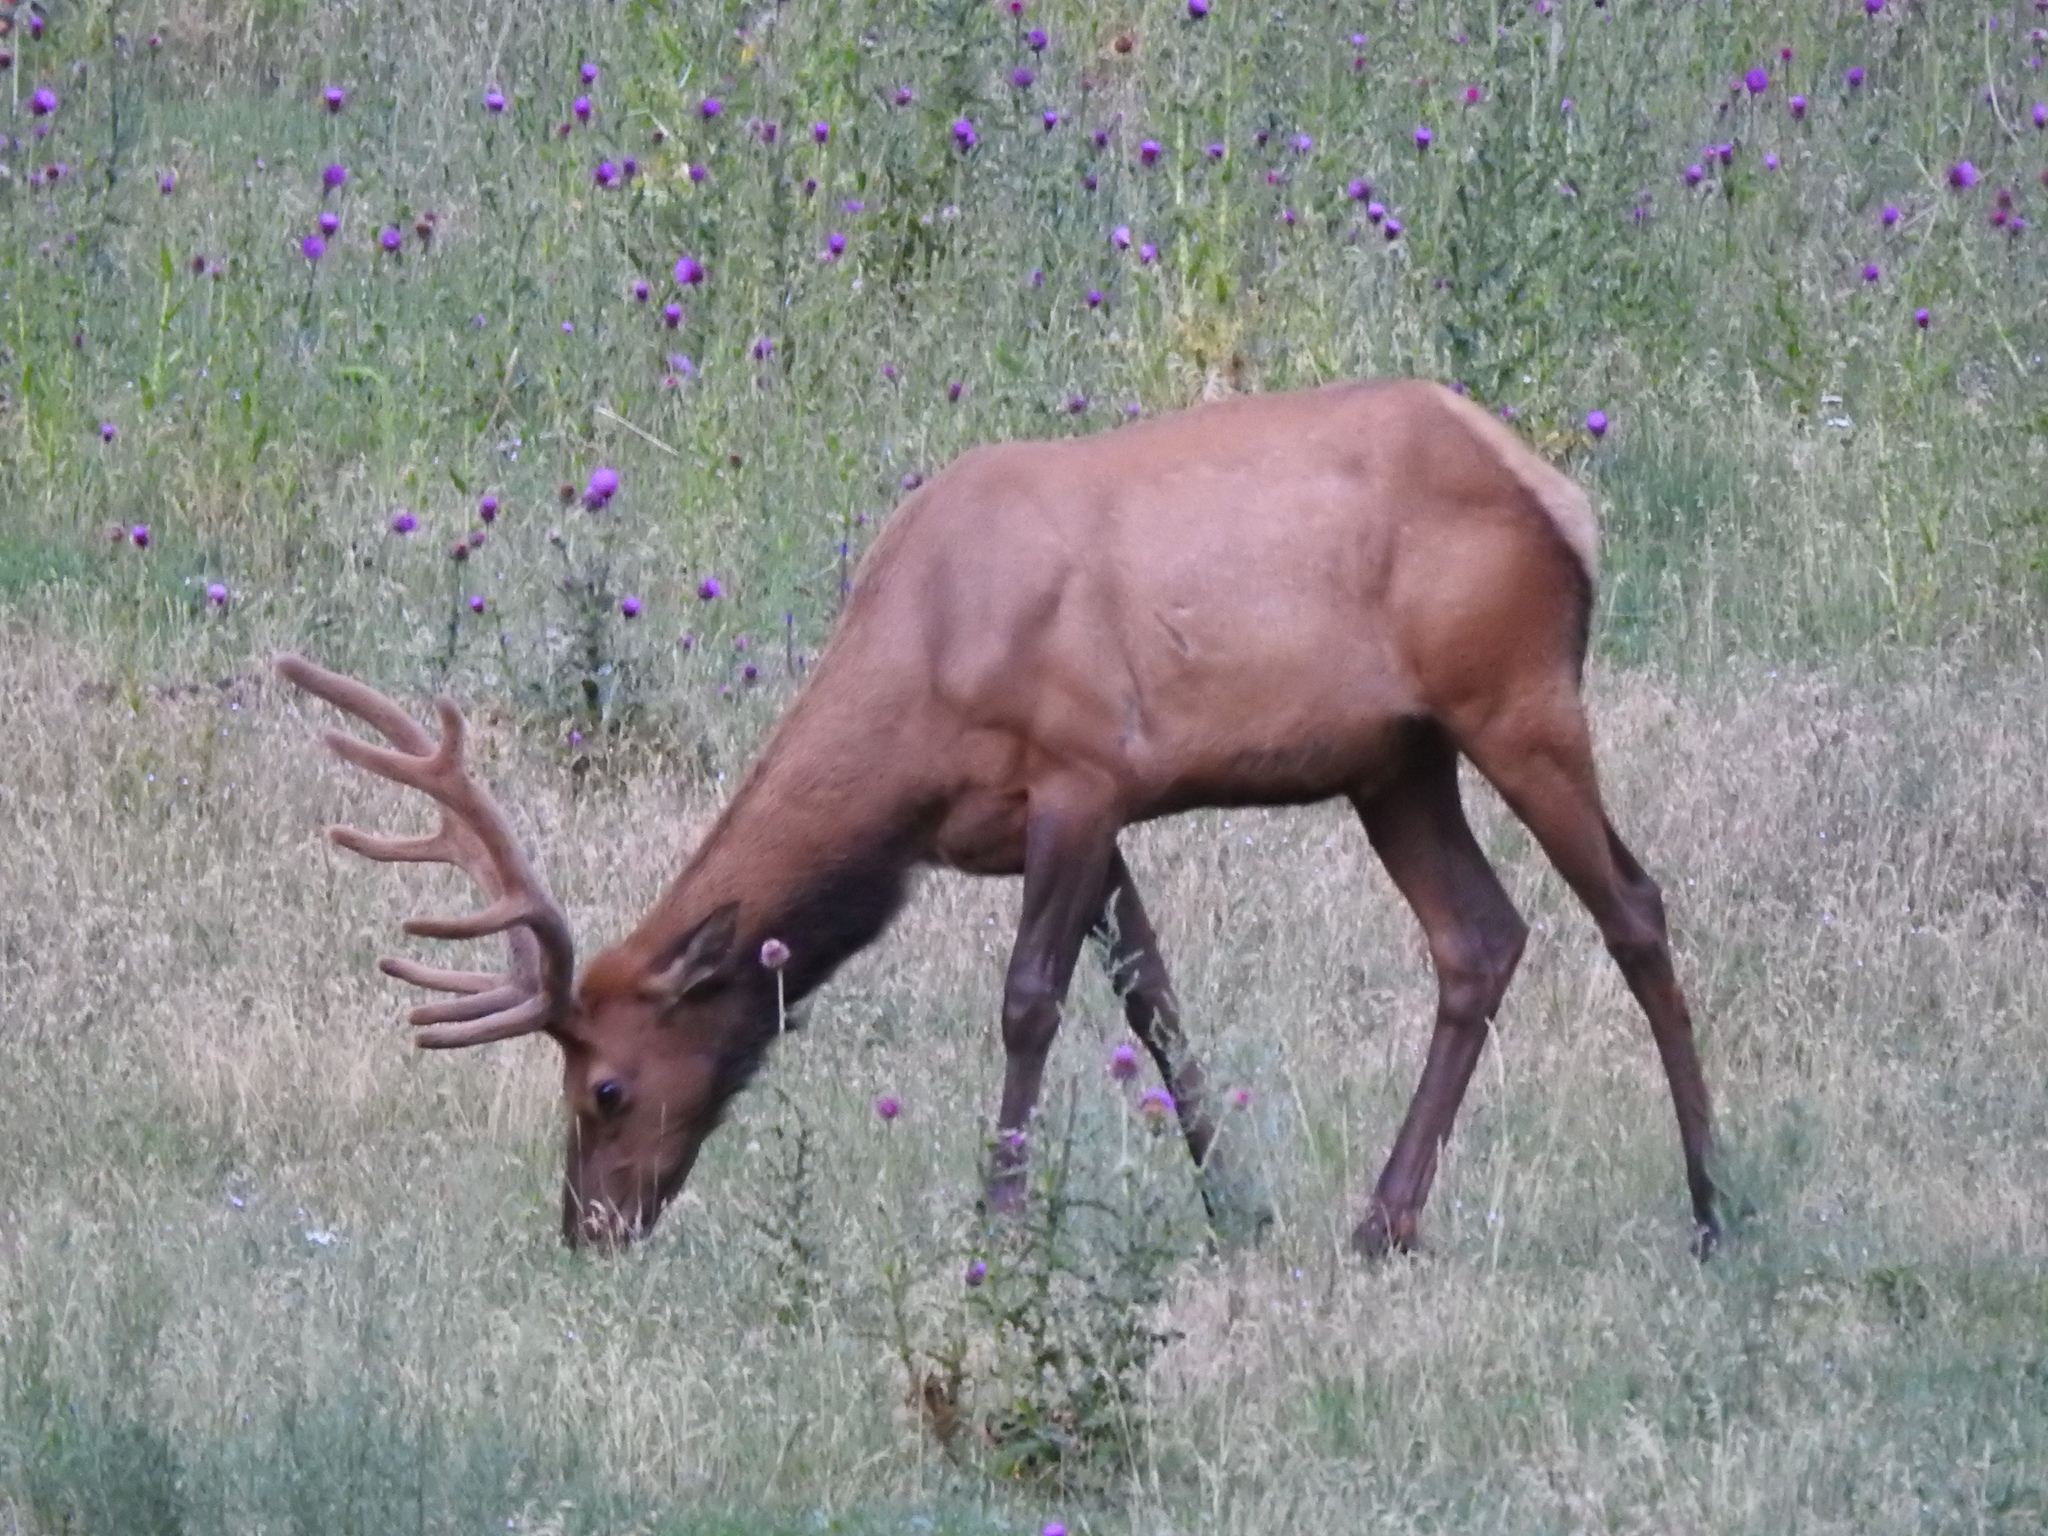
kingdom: Animalia
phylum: Chordata
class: Mammalia
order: Artiodactyla
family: Cervidae
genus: Cervus
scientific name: Cervus elaphus
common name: Red deer
